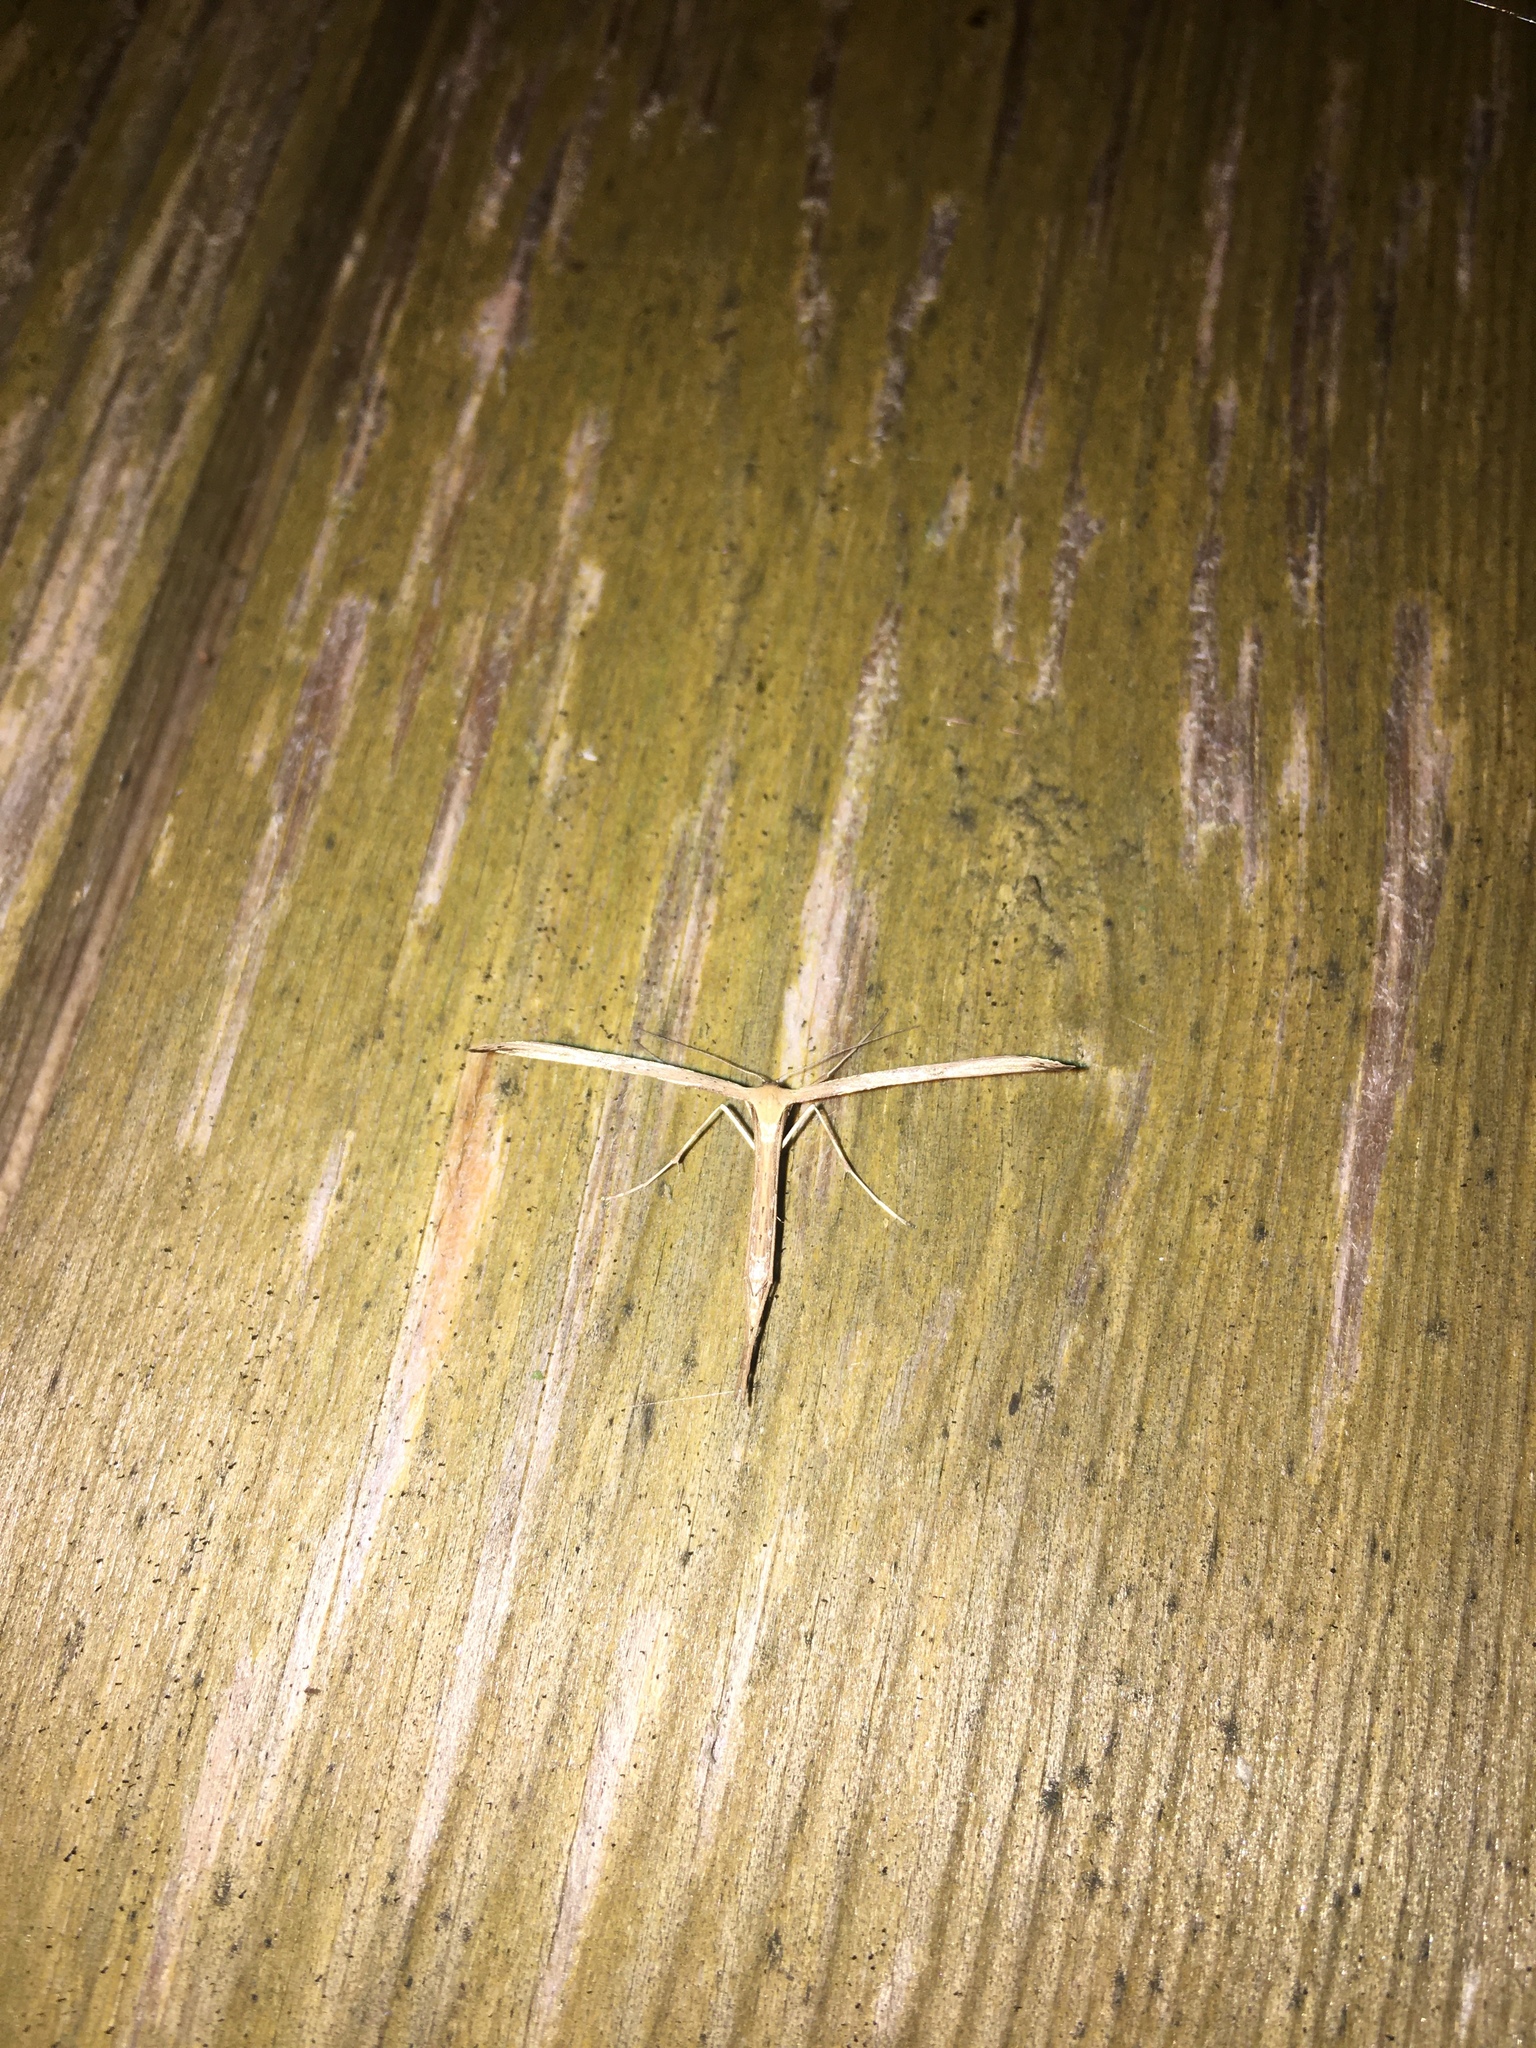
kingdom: Animalia
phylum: Arthropoda
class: Insecta
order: Lepidoptera
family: Pterophoridae
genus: Emmelina
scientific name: Emmelina monodactyla
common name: Common plume
